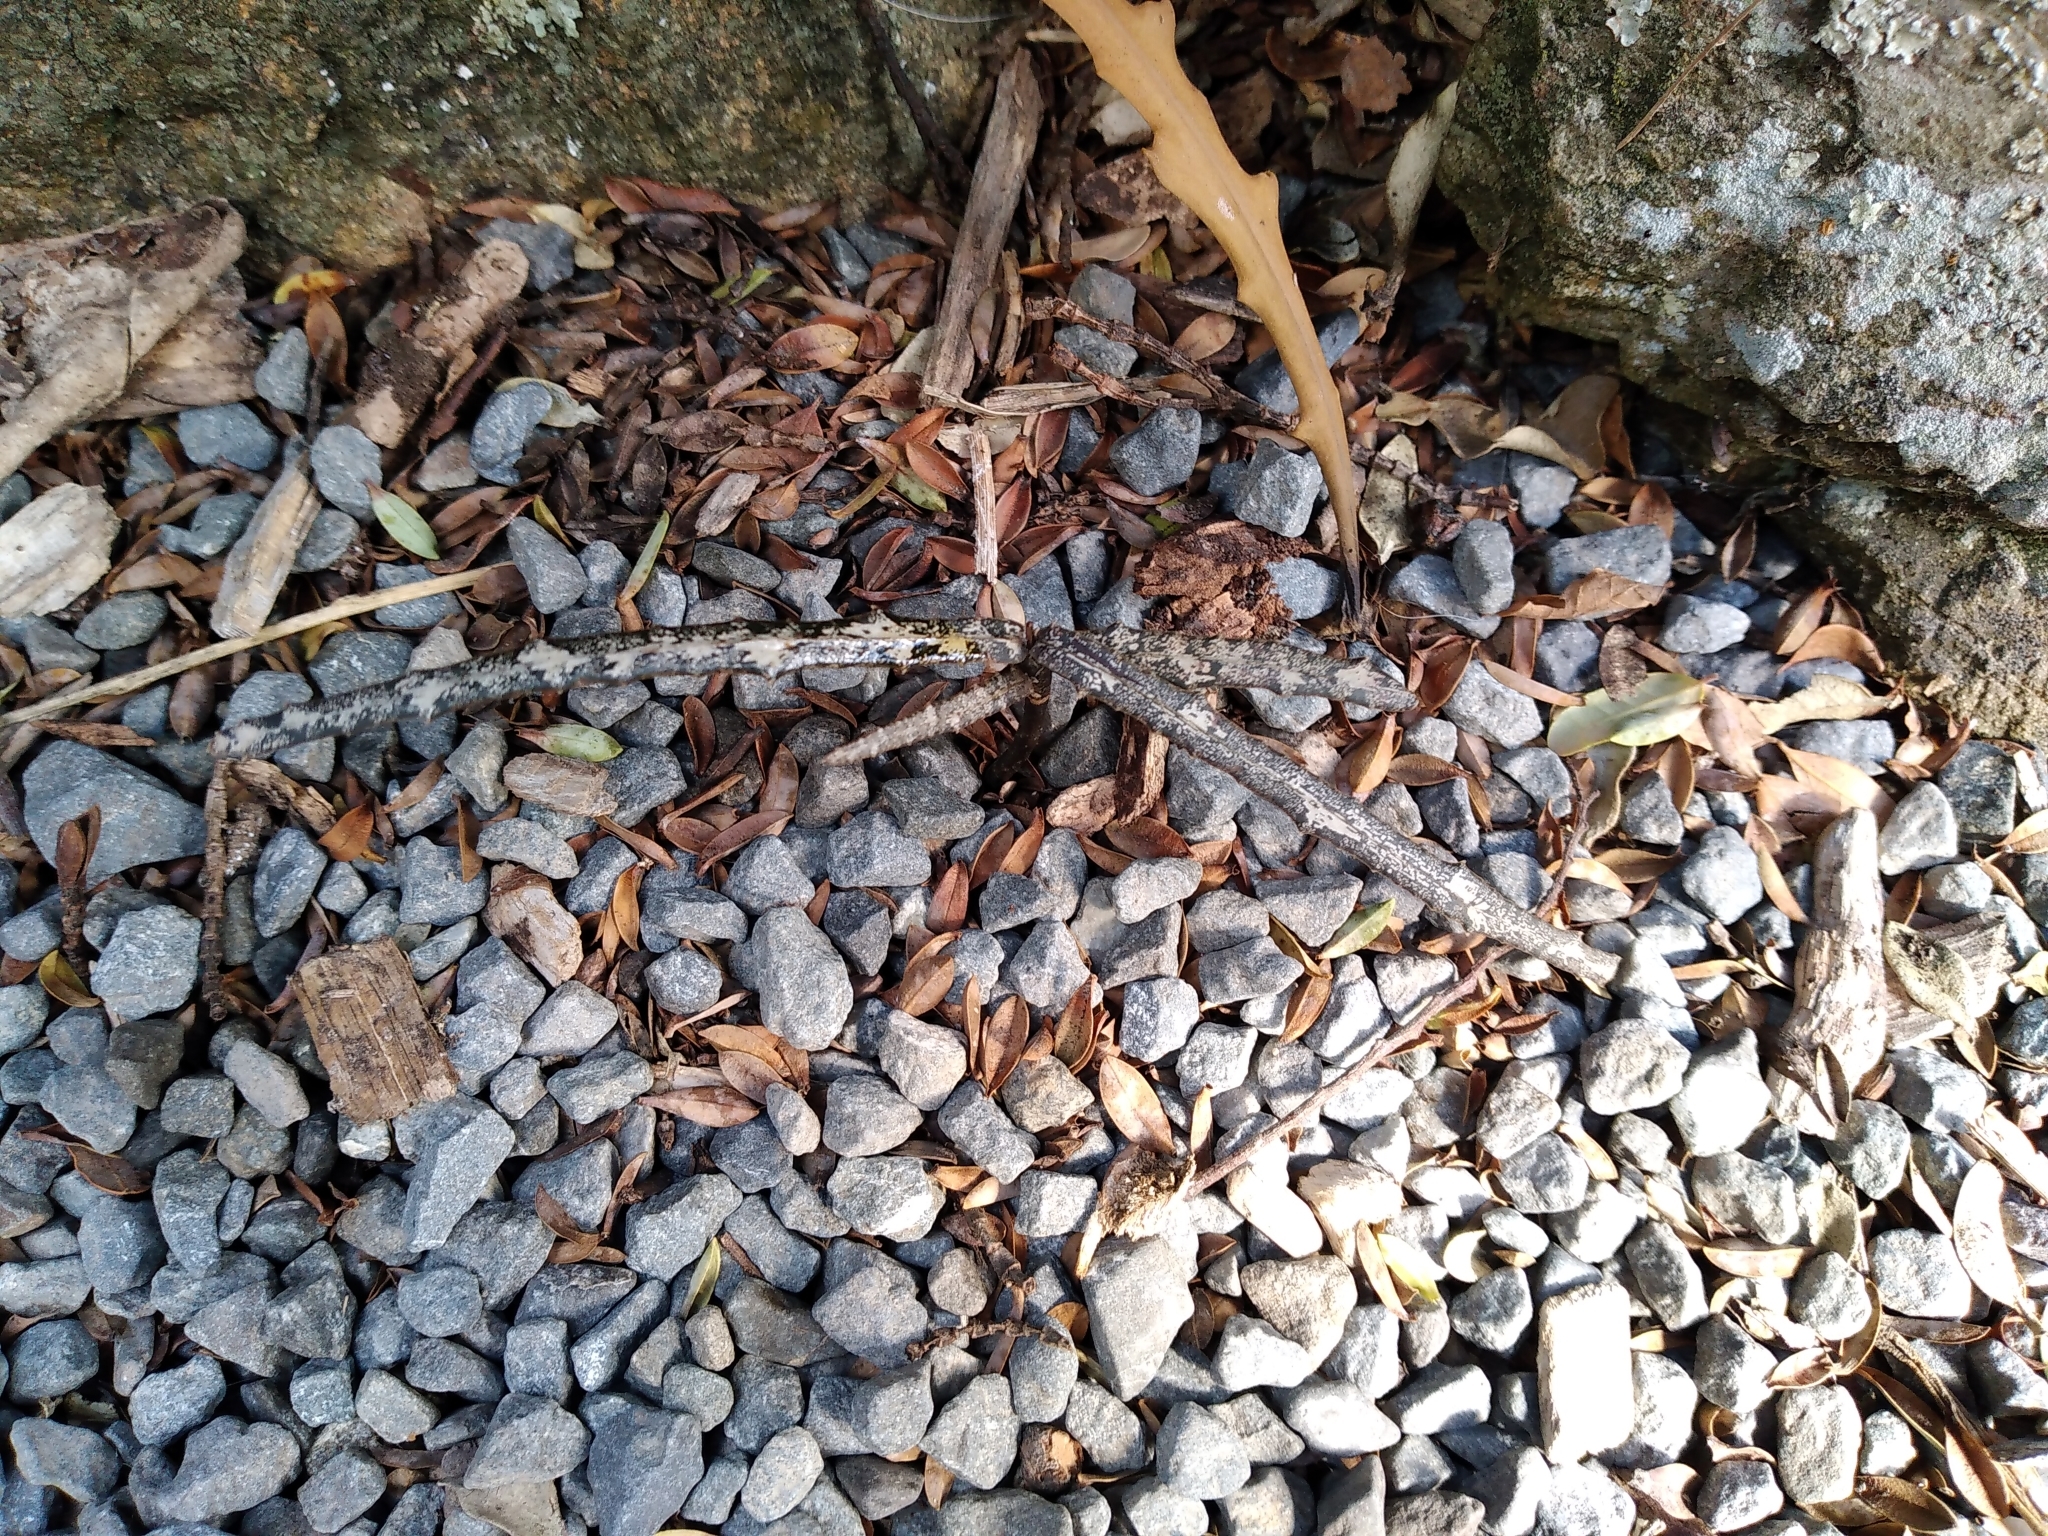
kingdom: Plantae
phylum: Tracheophyta
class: Magnoliopsida
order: Apiales
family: Araliaceae
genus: Pseudopanax
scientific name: Pseudopanax ferox
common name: Fierce lancewood
